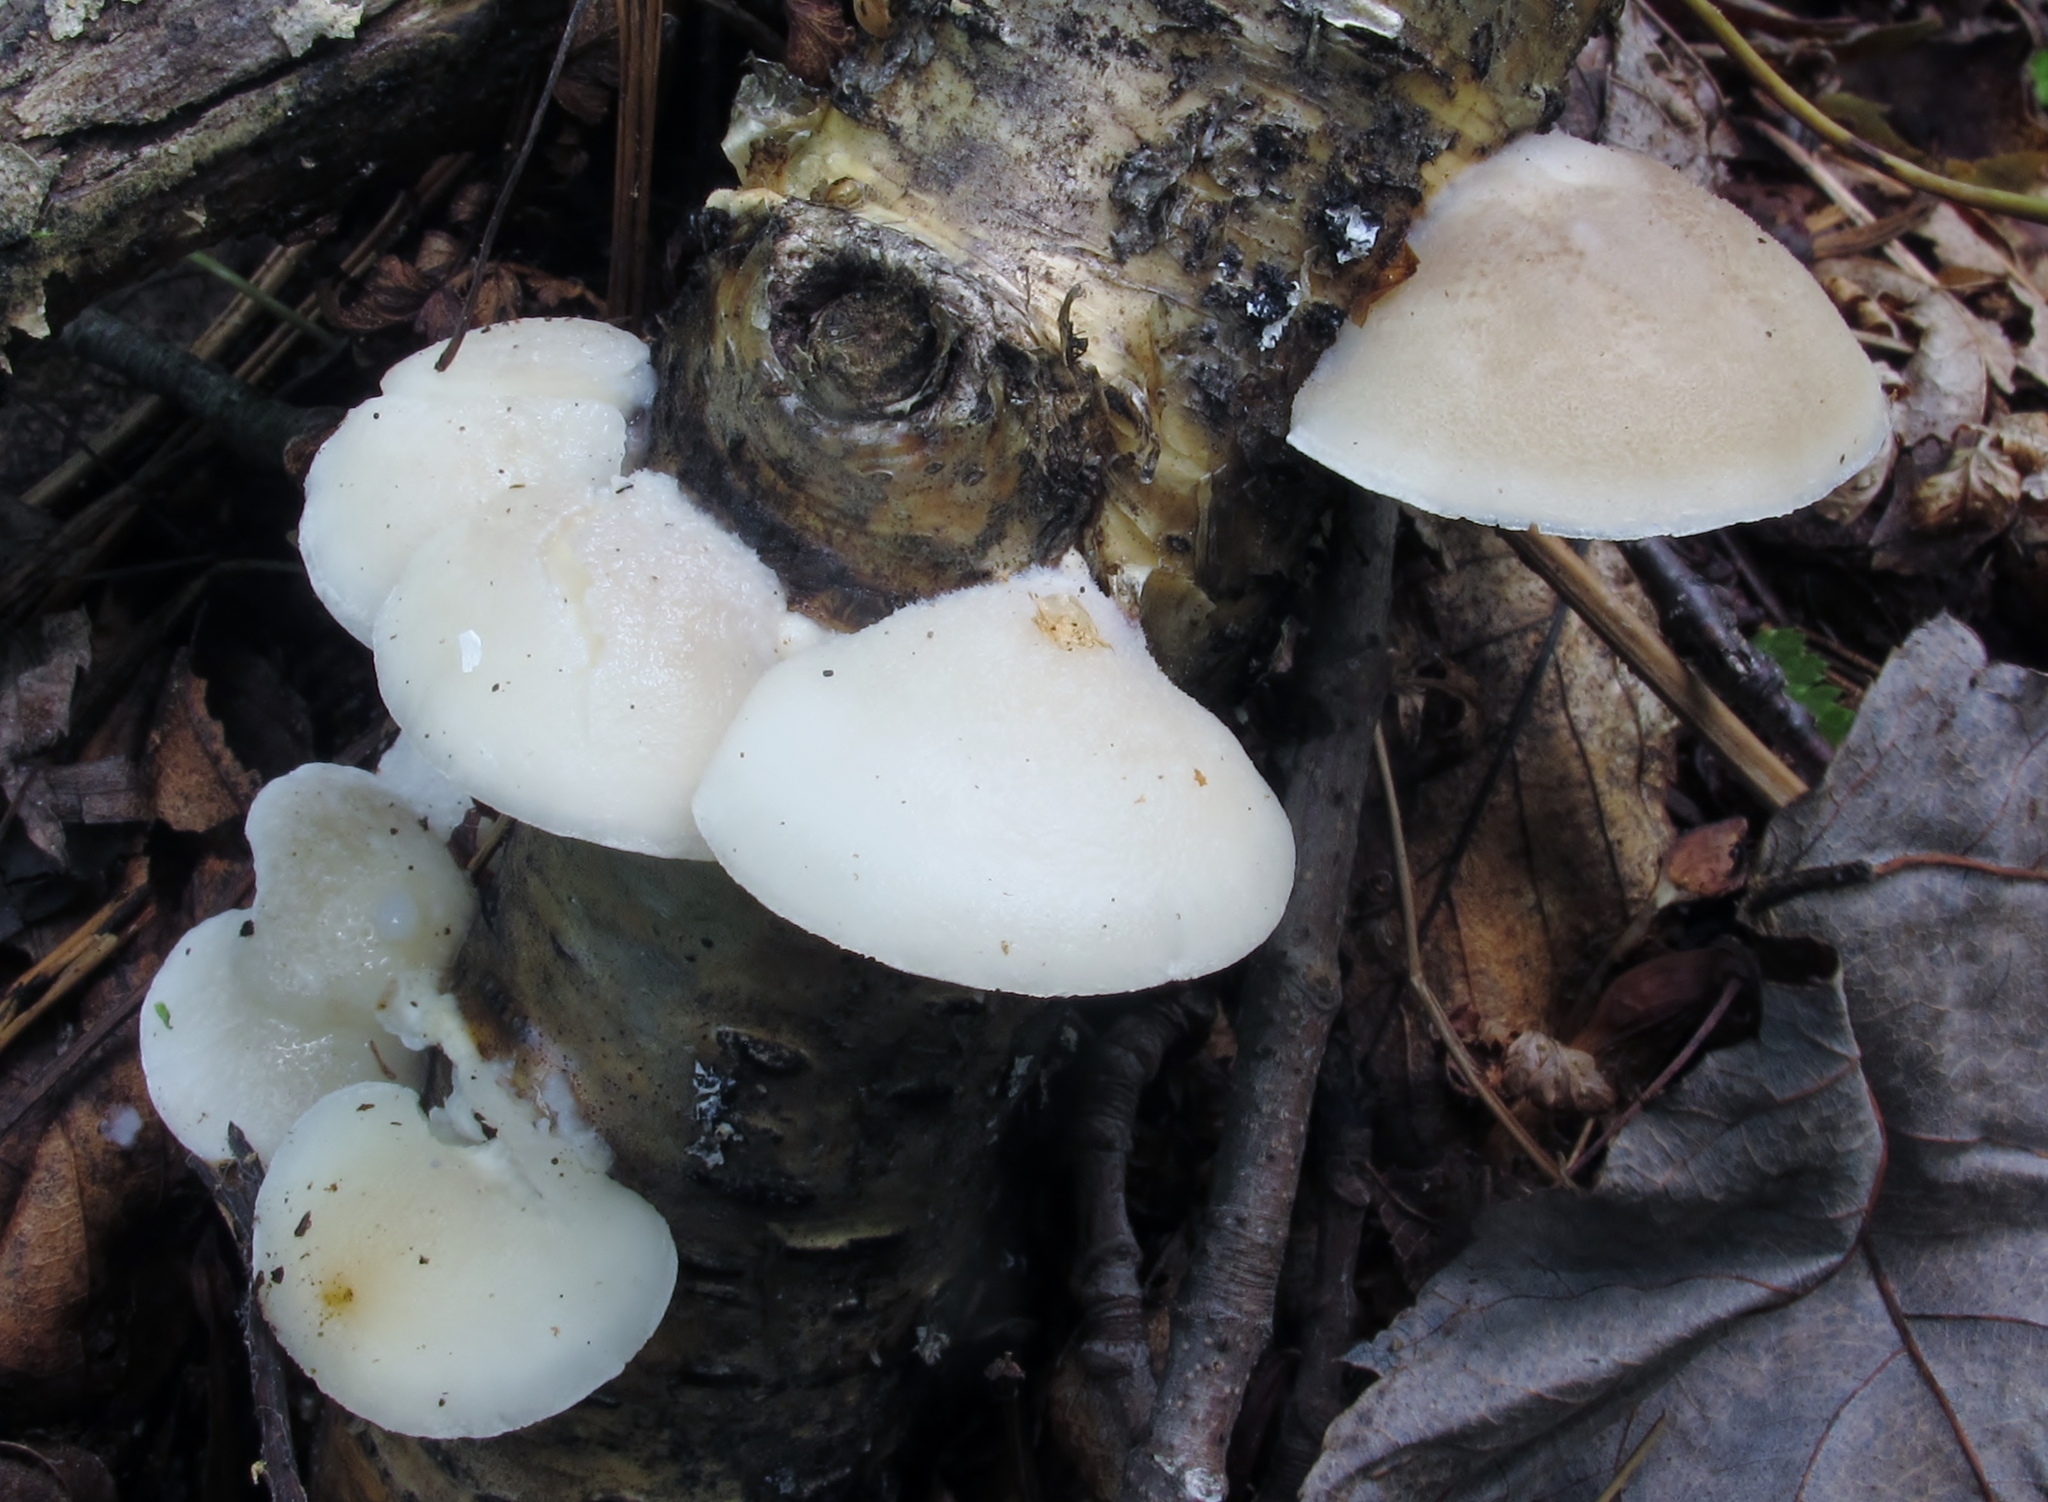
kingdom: Fungi
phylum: Basidiomycota
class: Agaricomycetes
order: Polyporales
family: Incrustoporiaceae
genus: Tyromyces
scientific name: Tyromyces chioneus
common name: White cheese polypore
